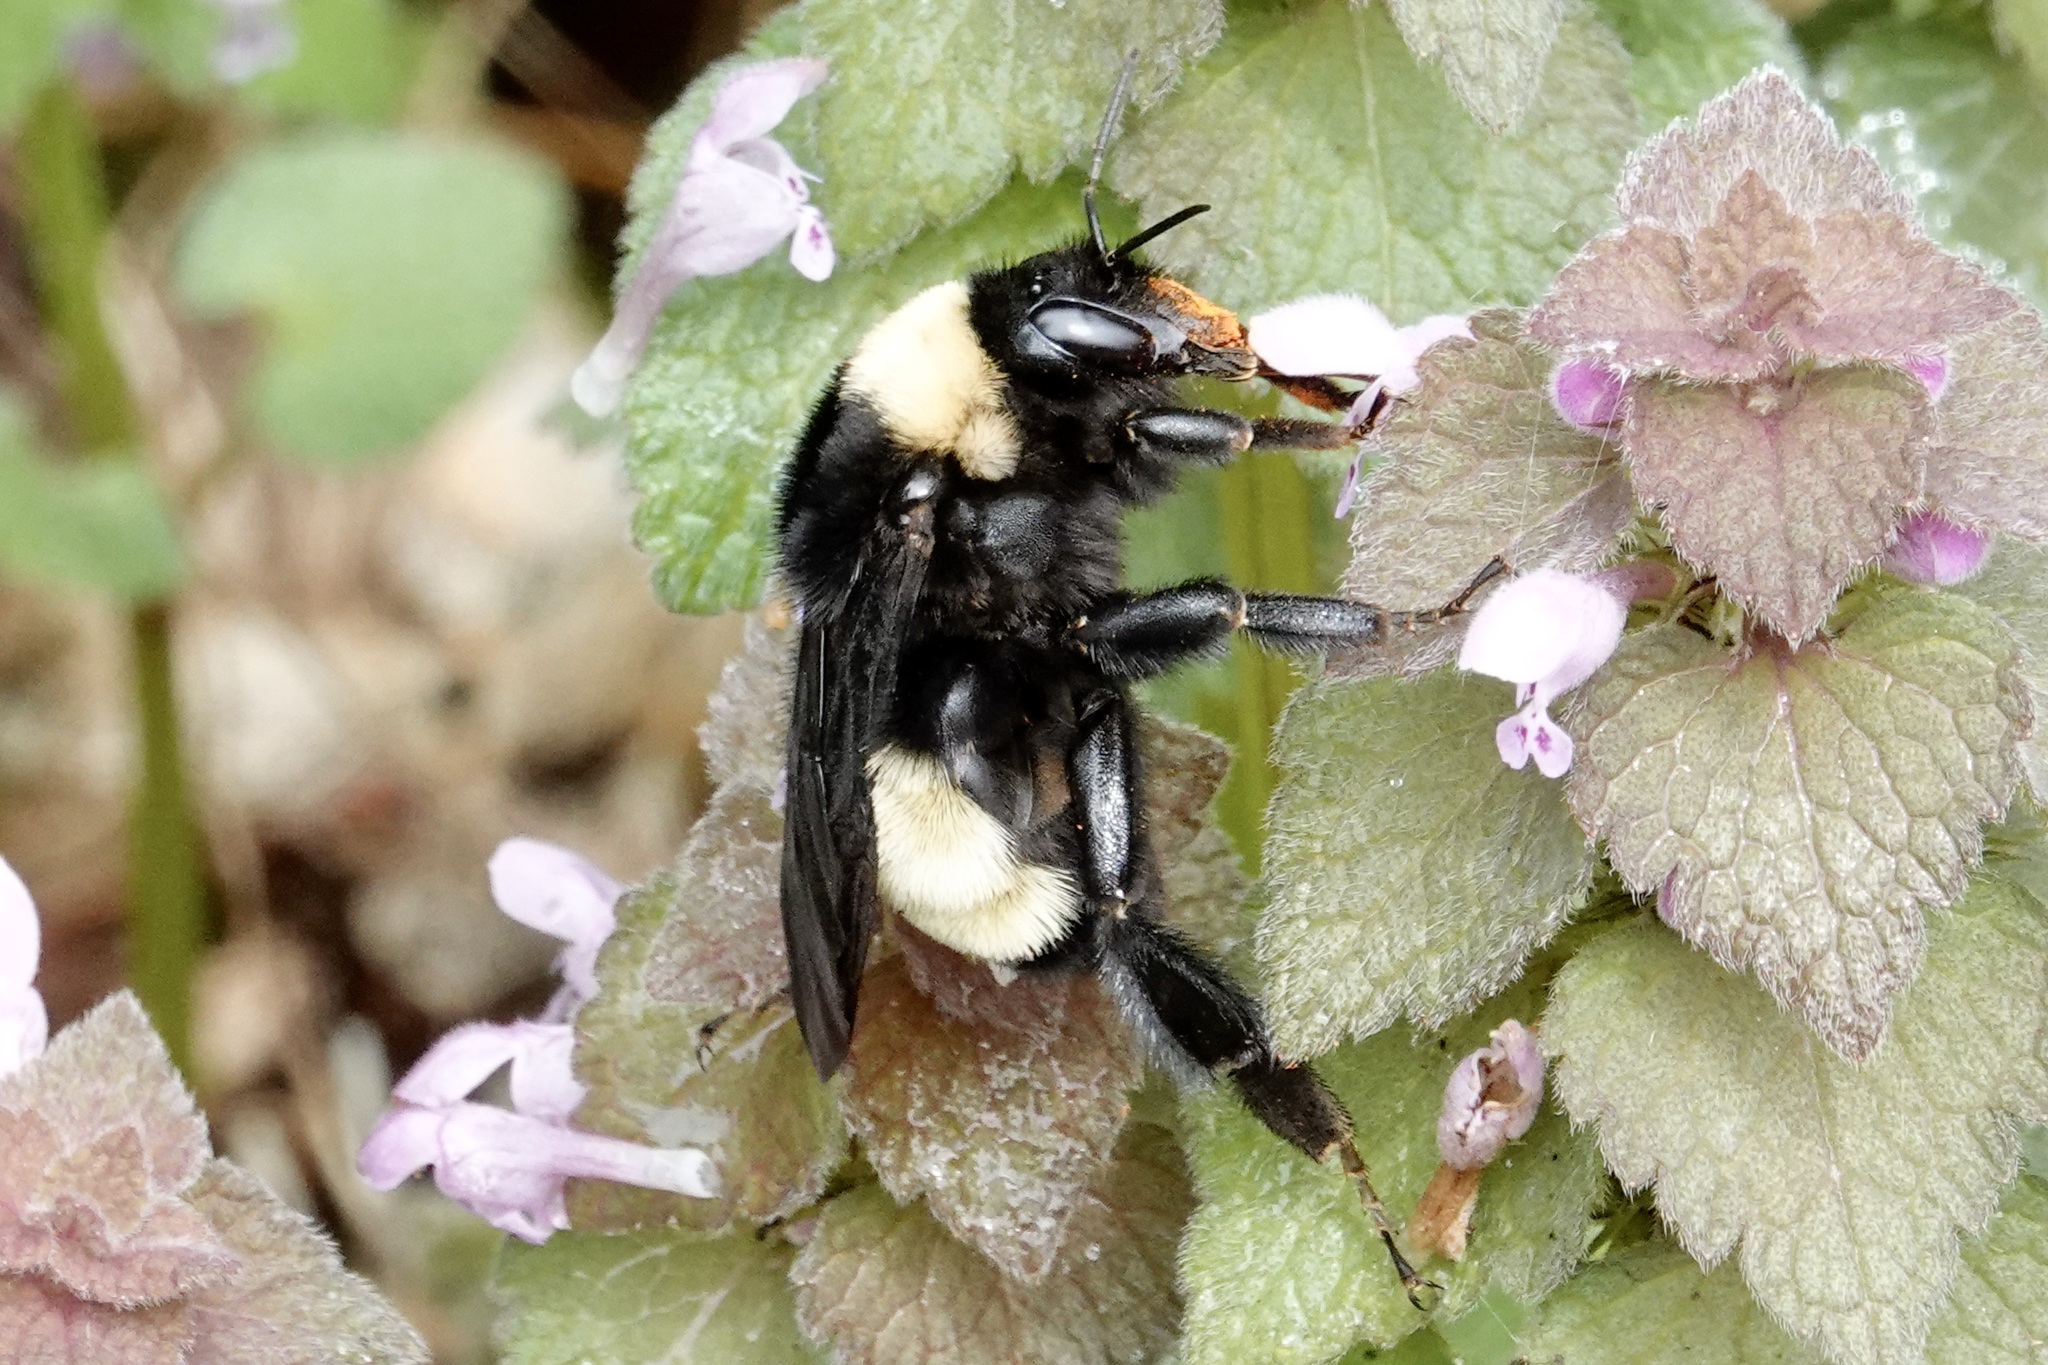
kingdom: Animalia
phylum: Arthropoda
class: Insecta
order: Hymenoptera
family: Apidae
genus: Bombus
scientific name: Bombus pensylvanicus
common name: Bumble bee
